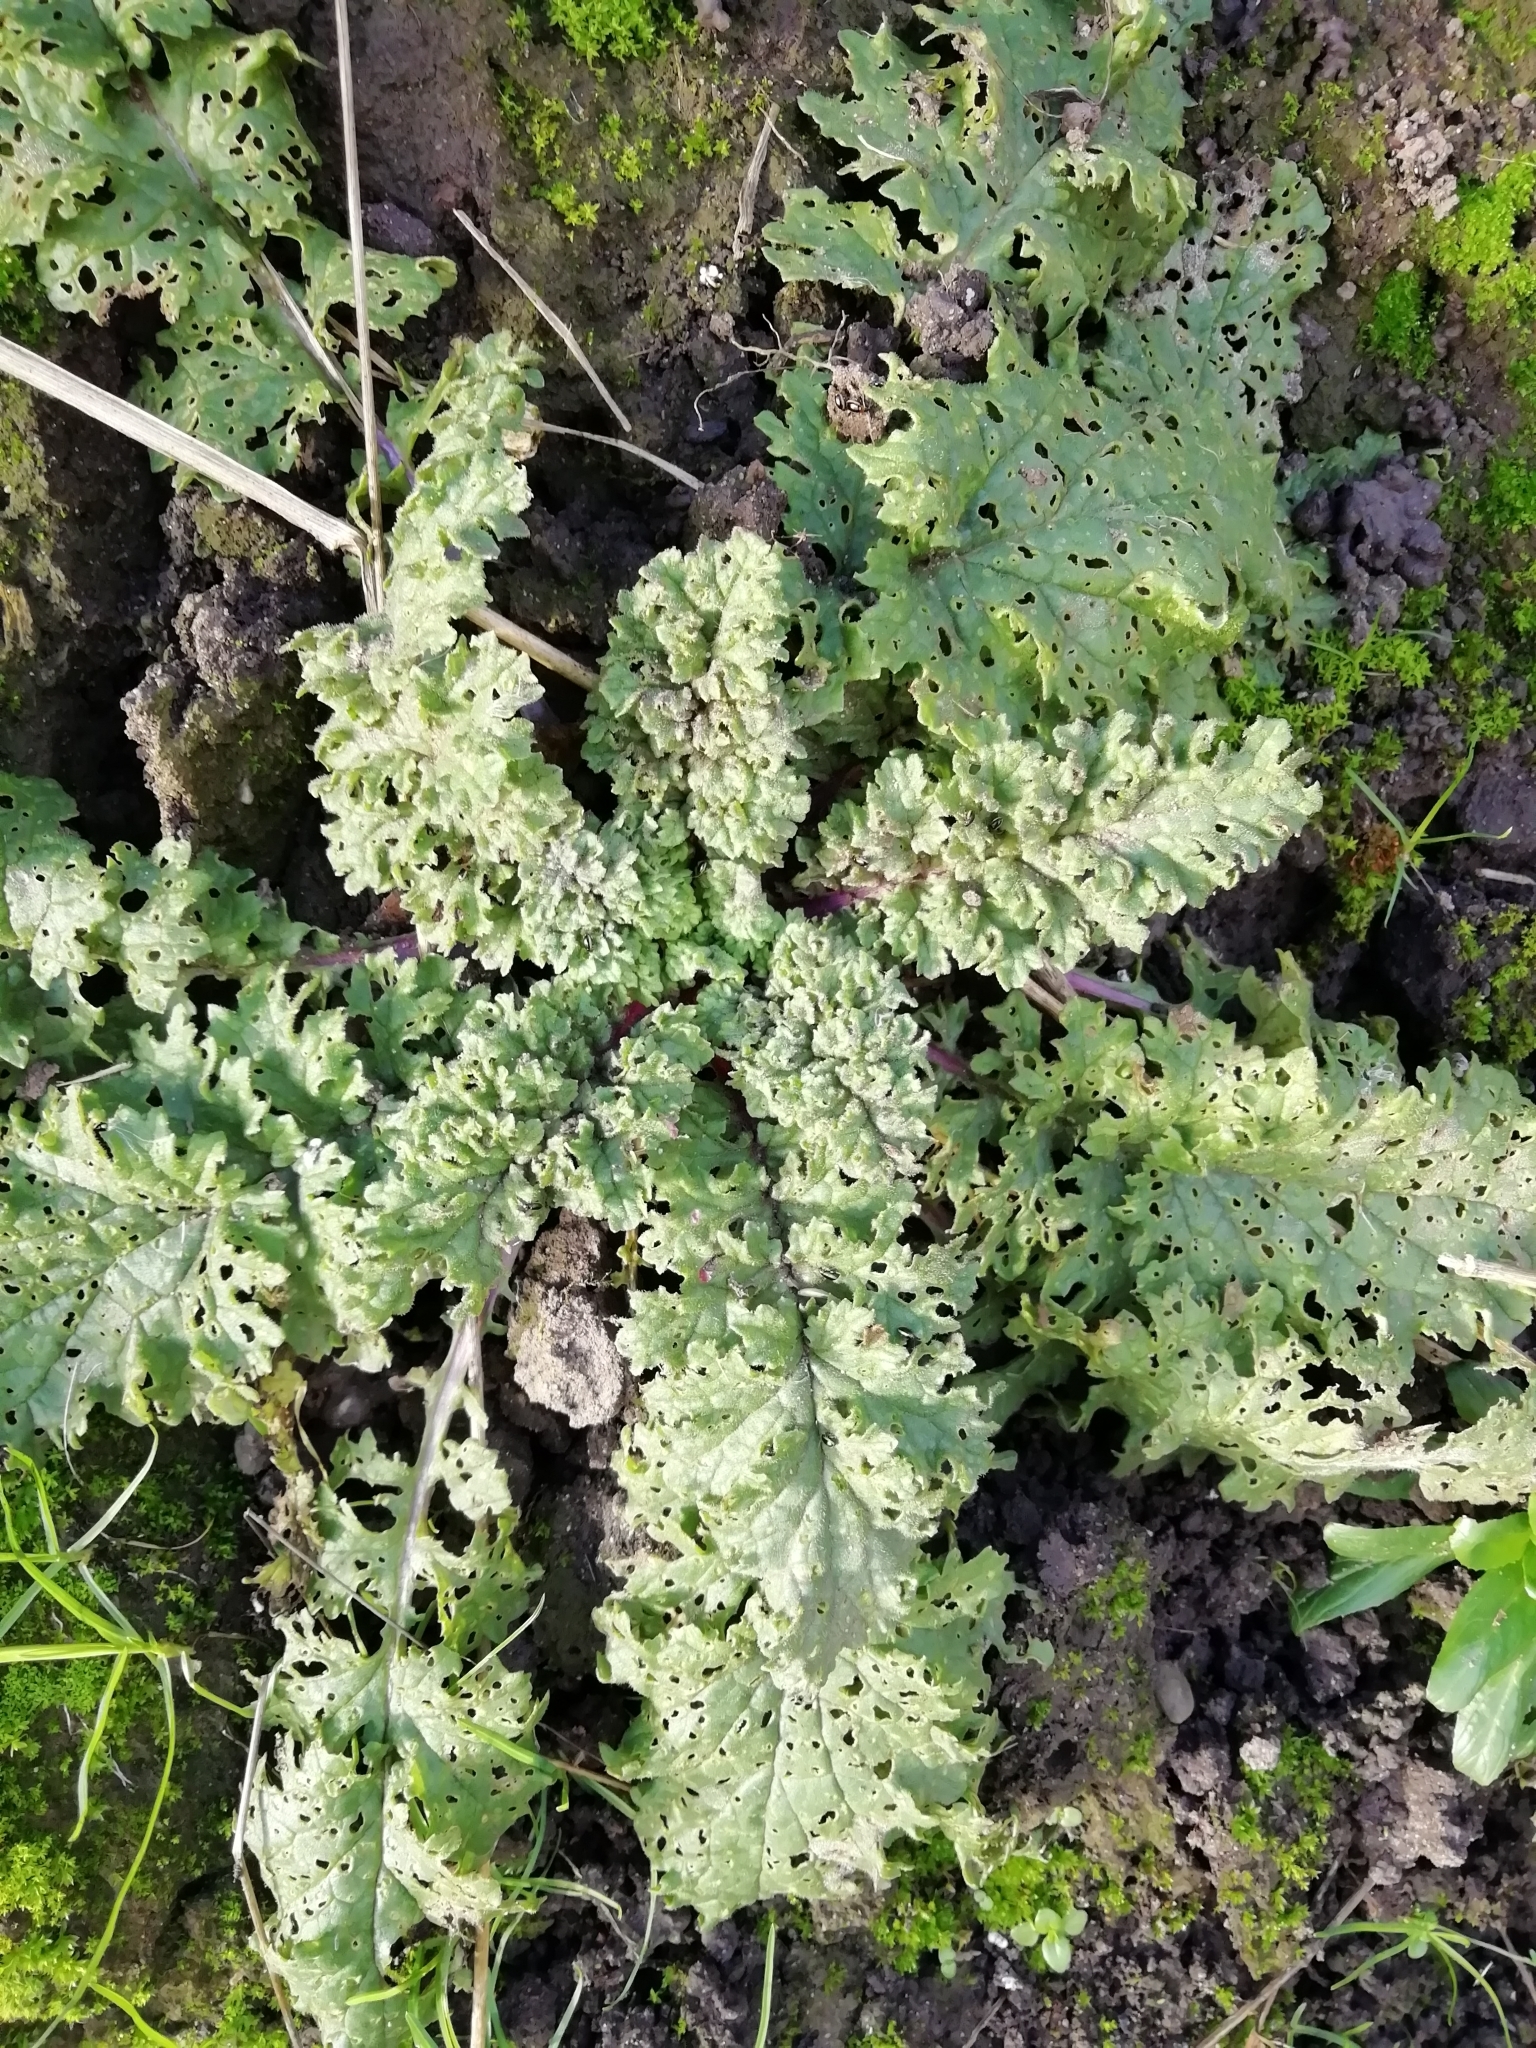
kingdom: Plantae
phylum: Tracheophyta
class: Magnoliopsida
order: Asterales
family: Asteraceae
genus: Jacobaea
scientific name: Jacobaea vulgaris
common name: Stinking willie
